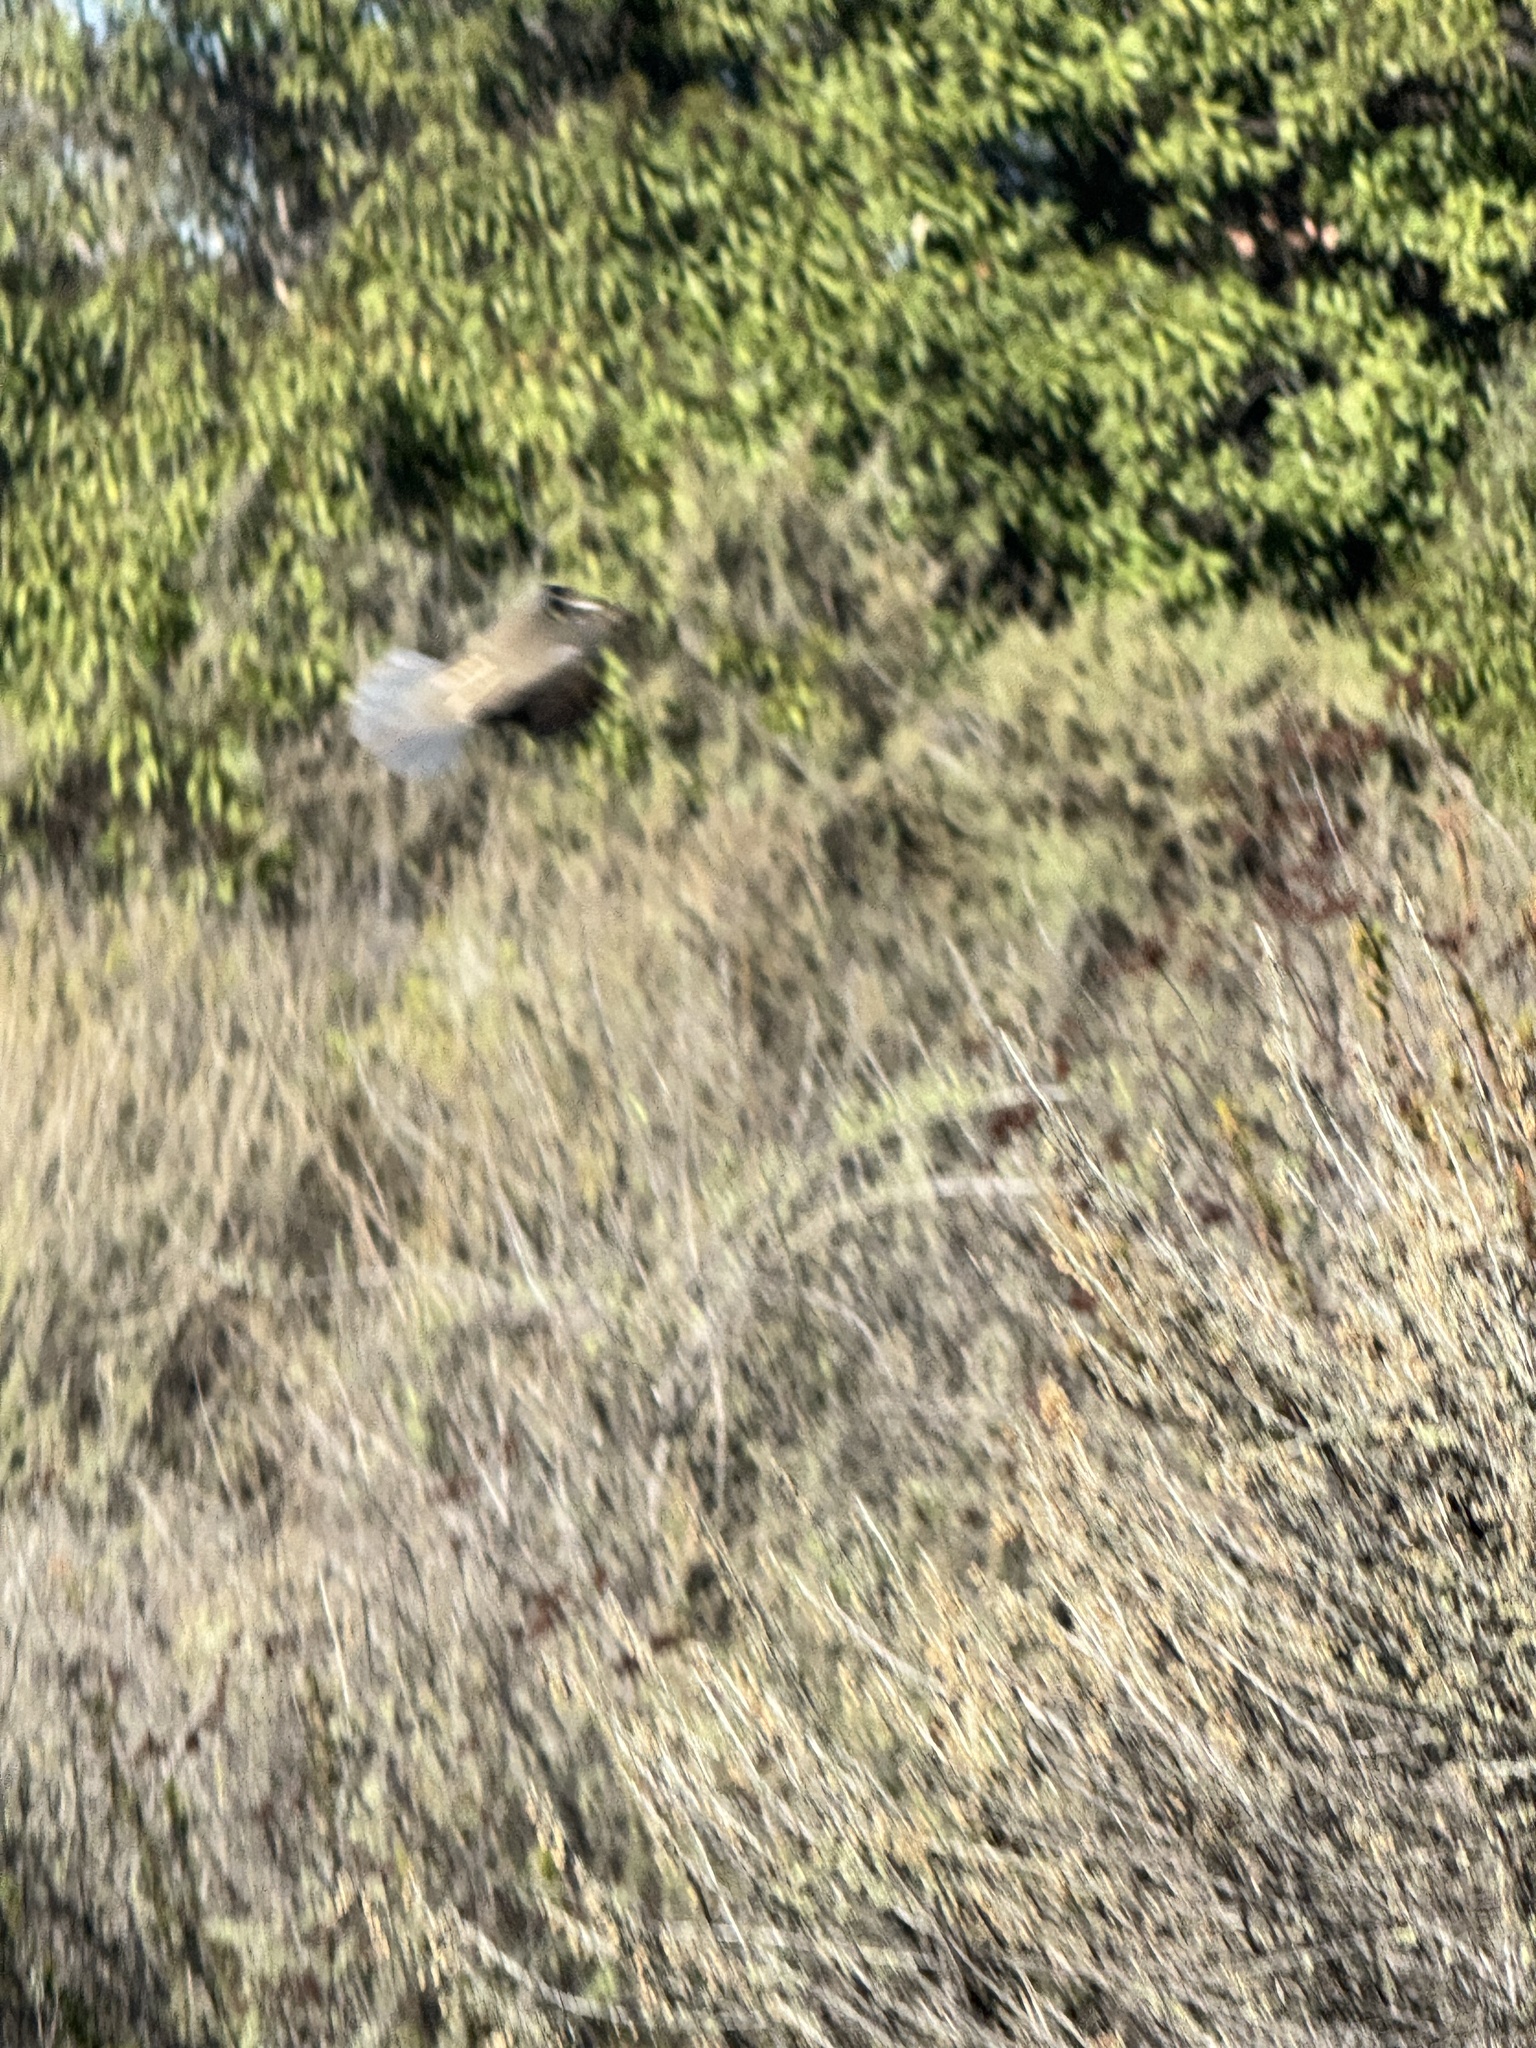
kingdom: Animalia
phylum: Chordata
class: Aves
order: Galliformes
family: Odontophoridae
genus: Callipepla
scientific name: Callipepla californica
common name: California quail
